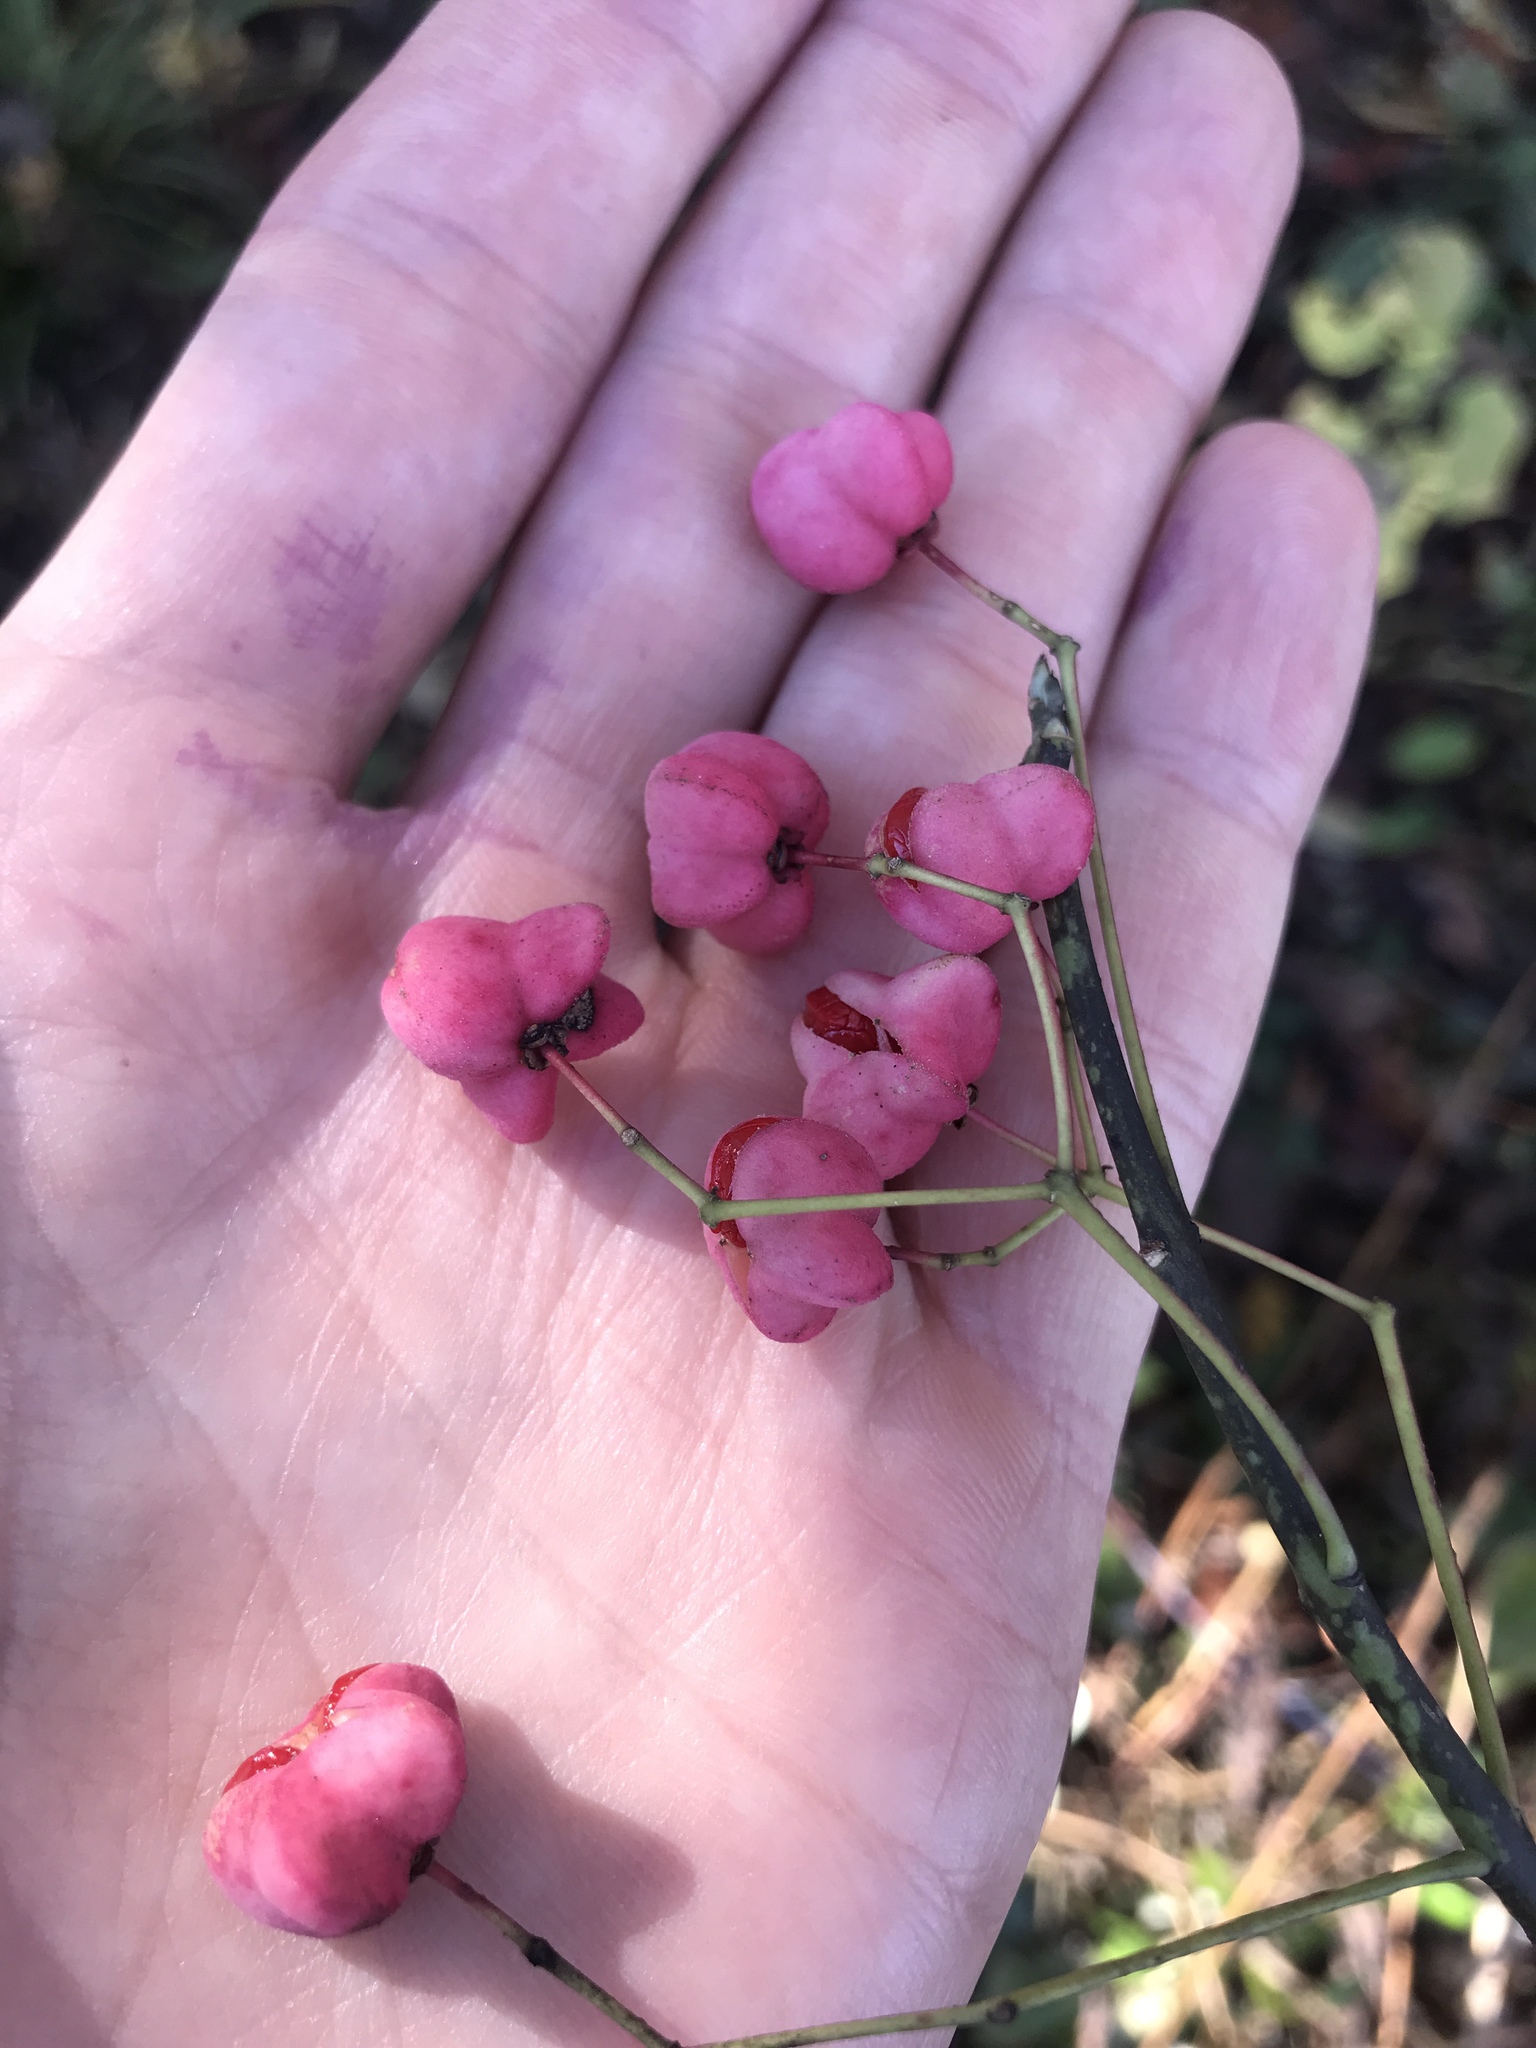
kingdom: Plantae
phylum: Tracheophyta
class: Magnoliopsida
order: Celastrales
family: Celastraceae
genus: Euonymus
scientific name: Euonymus atropurpureus
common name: Eastern wahoo
